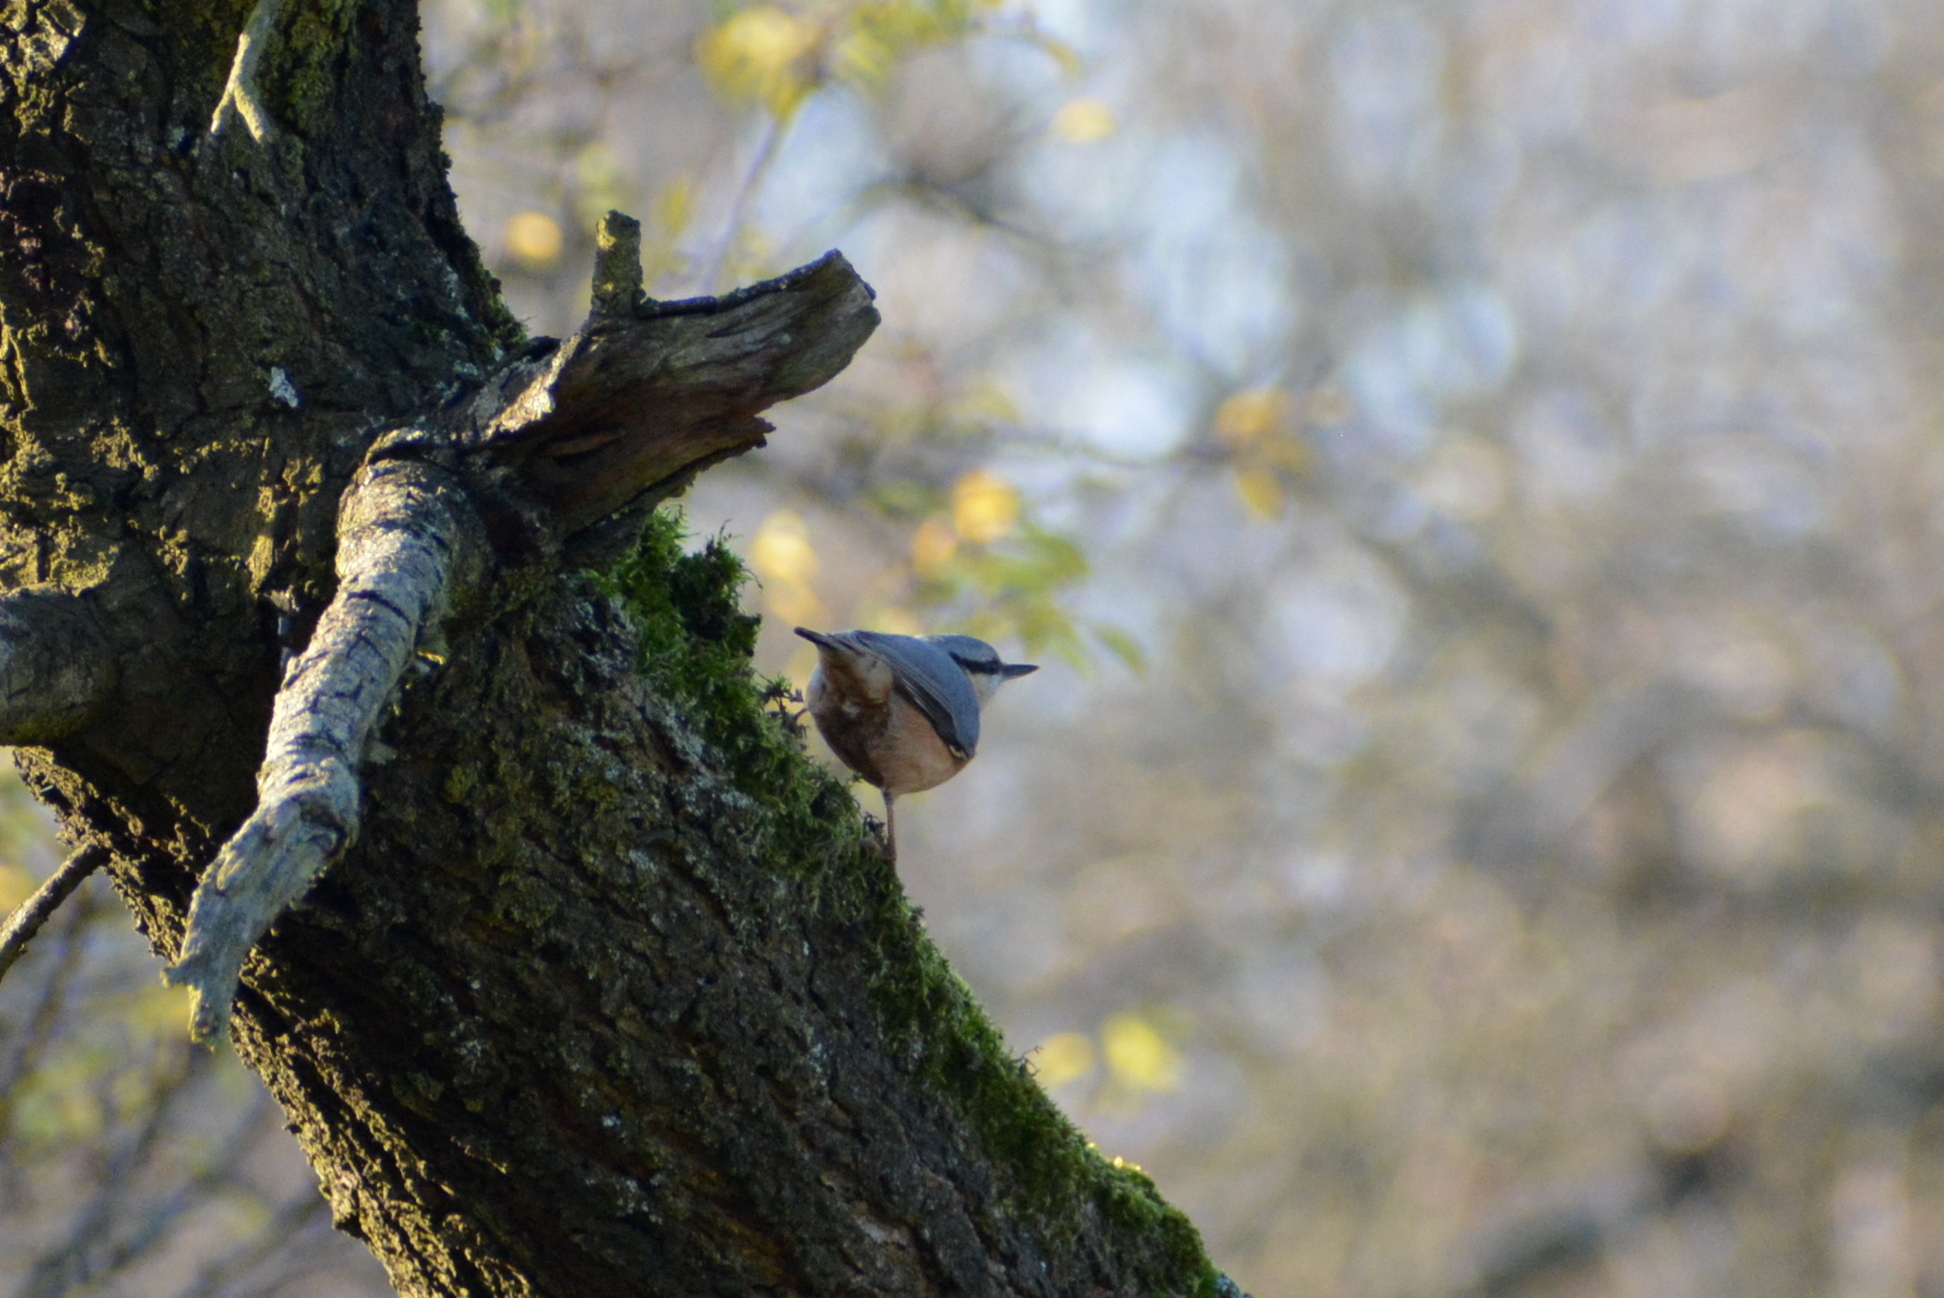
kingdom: Animalia
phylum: Chordata
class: Aves
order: Passeriformes
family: Sittidae
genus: Sitta
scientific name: Sitta europaea
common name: Eurasian nuthatch
